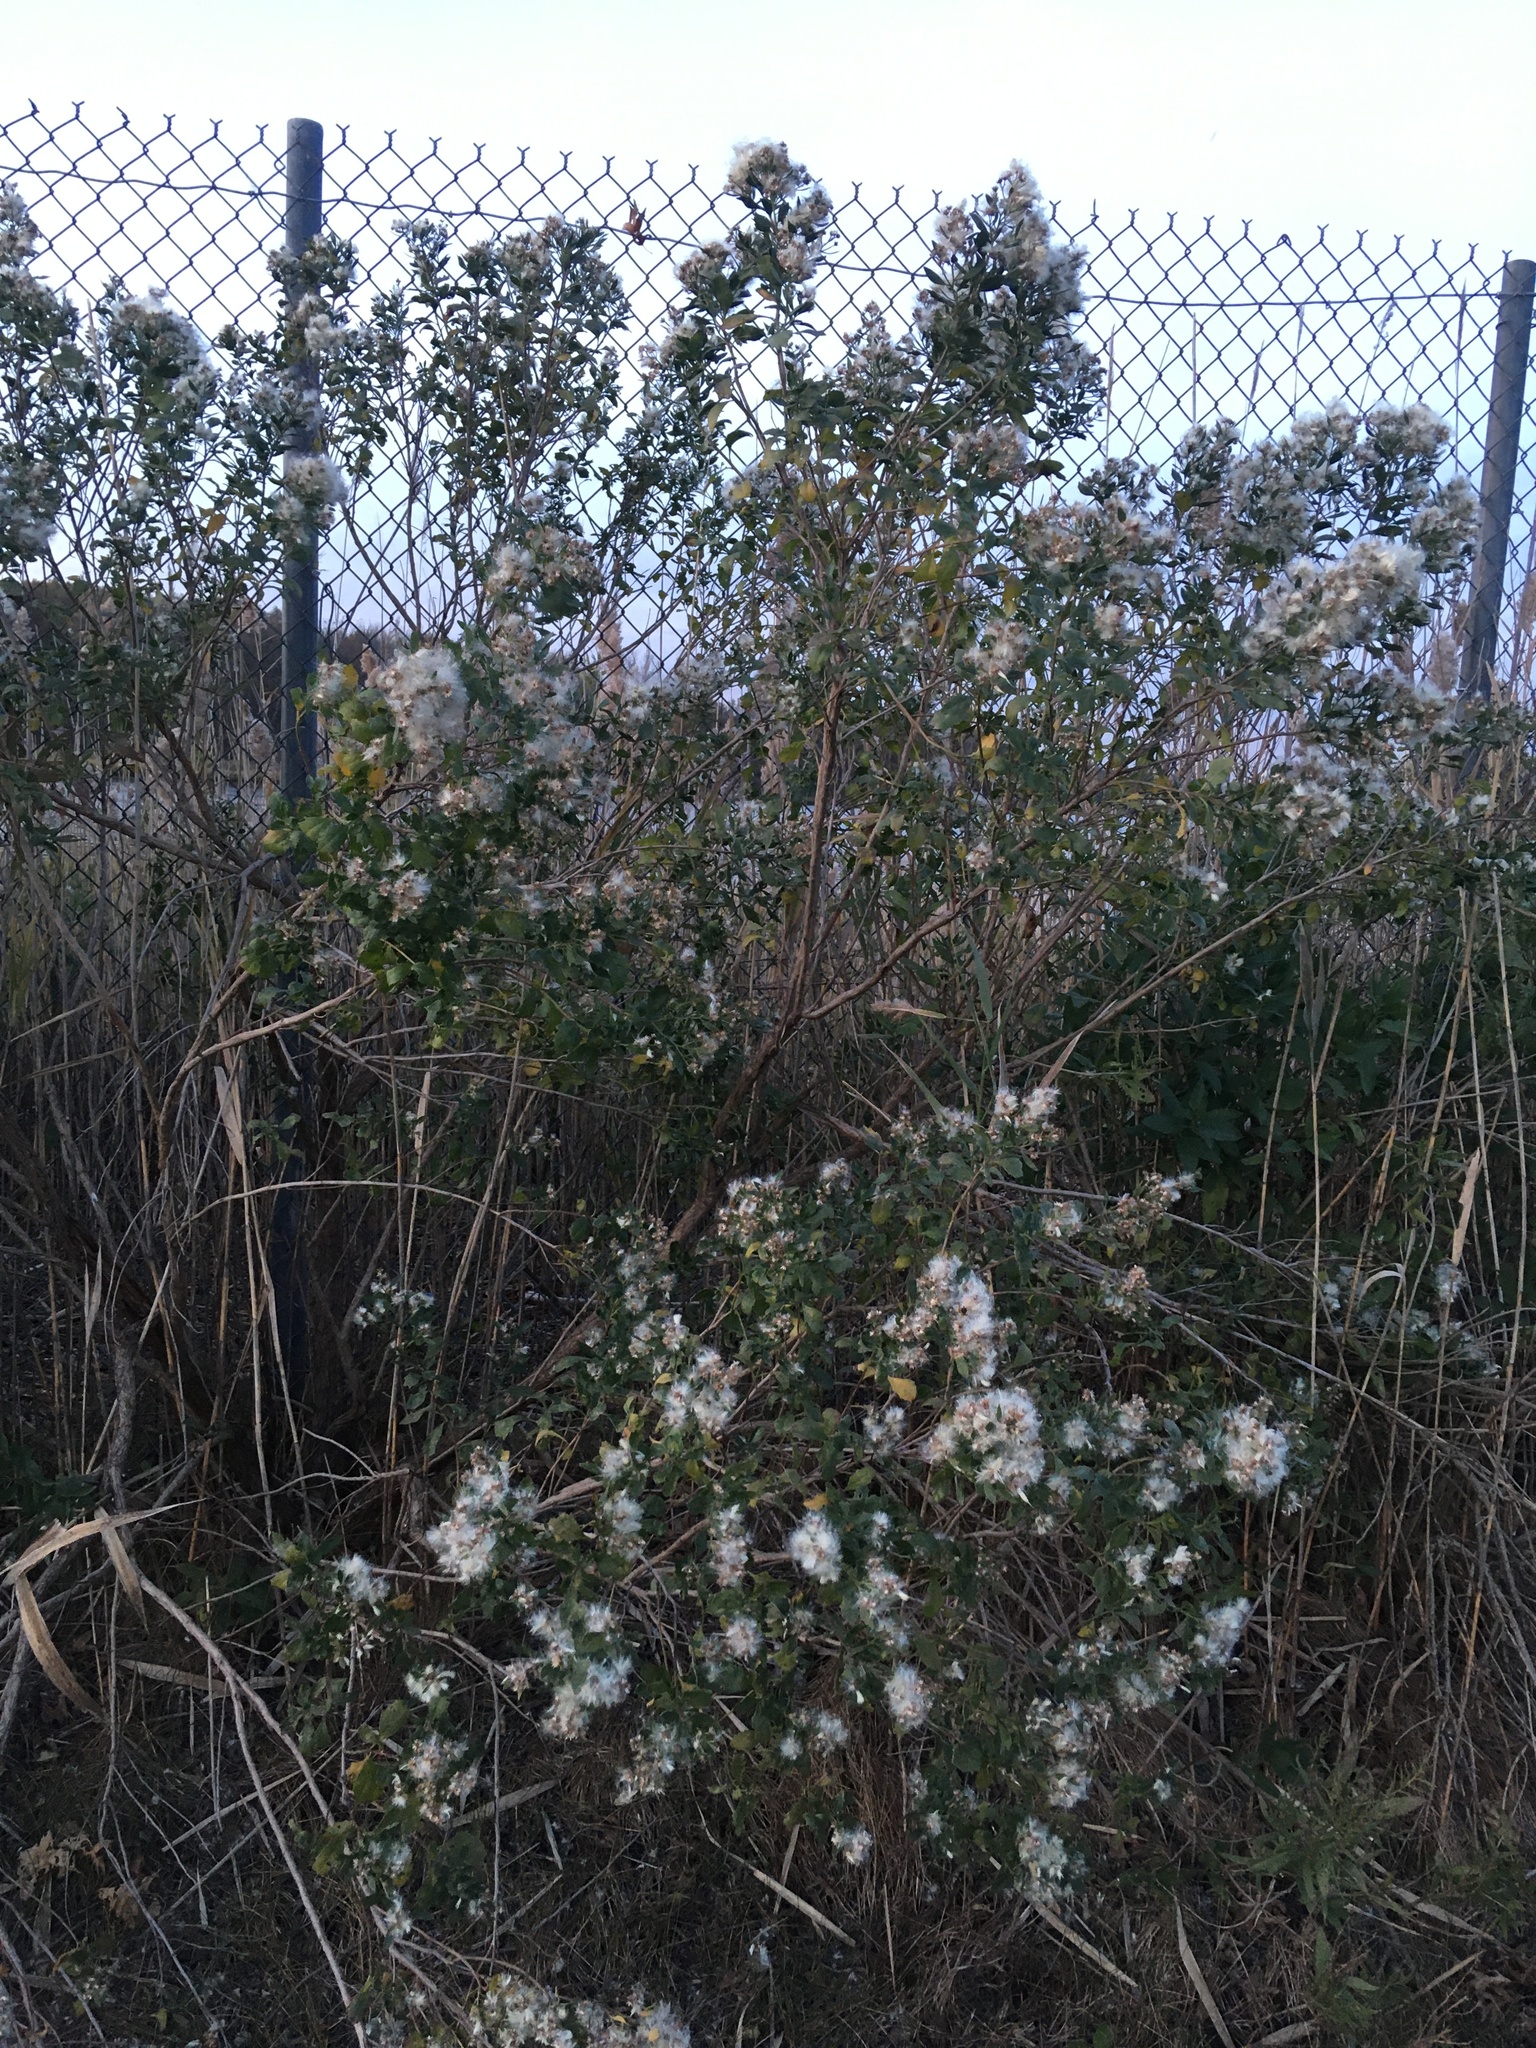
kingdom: Plantae
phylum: Tracheophyta
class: Magnoliopsida
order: Asterales
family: Asteraceae
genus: Baccharis
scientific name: Baccharis halimifolia
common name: Eastern baccharis
